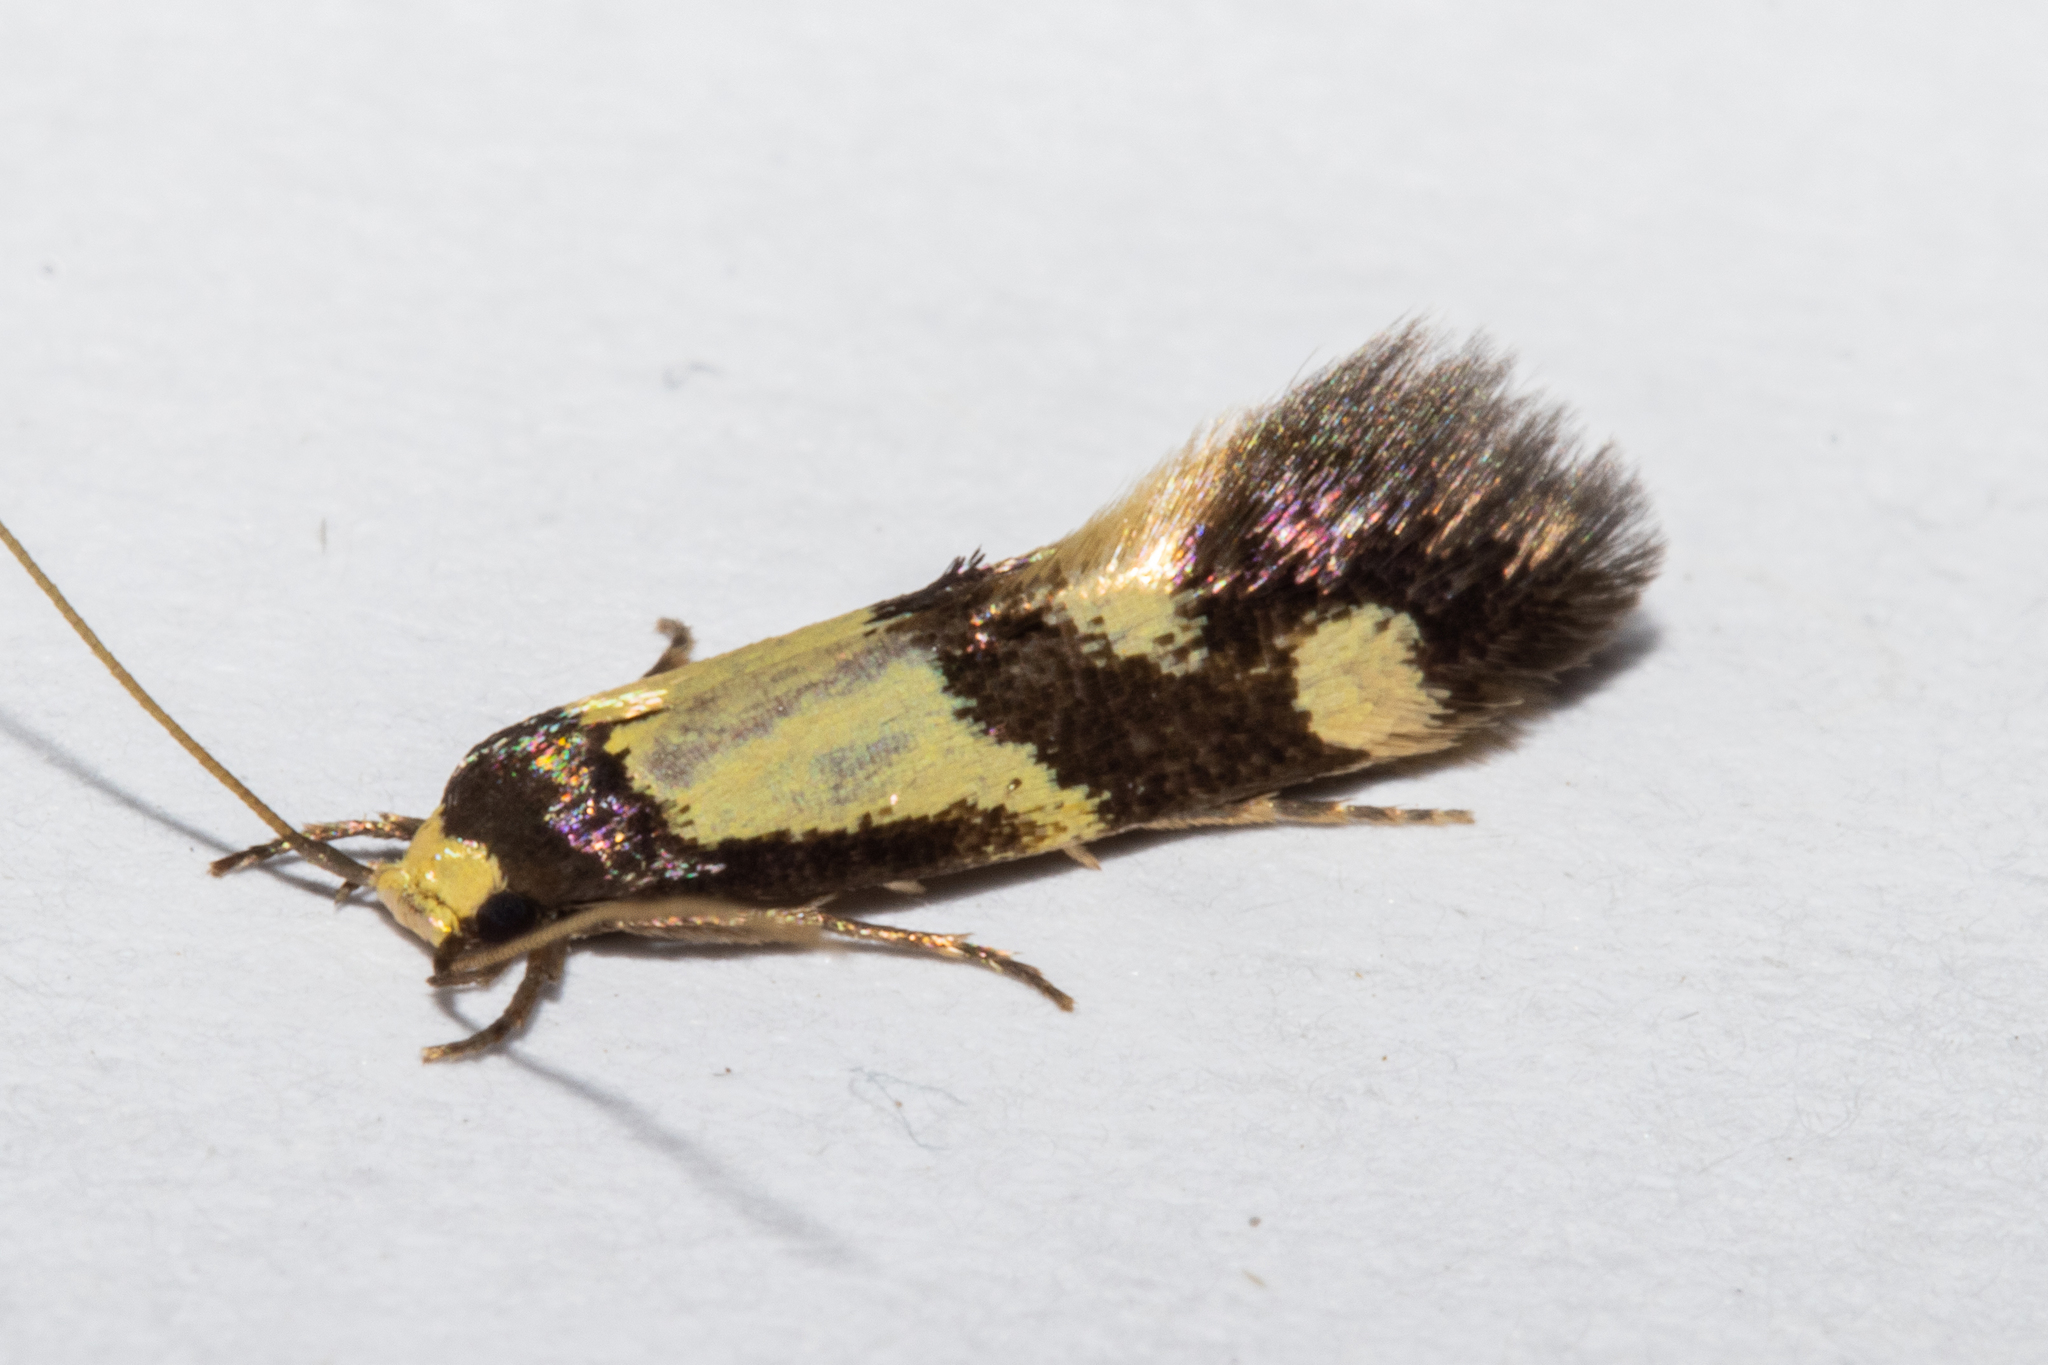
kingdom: Animalia
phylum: Arthropoda
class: Insecta
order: Lepidoptera
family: Tineidae
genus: Opogona
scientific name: Opogona comptella
